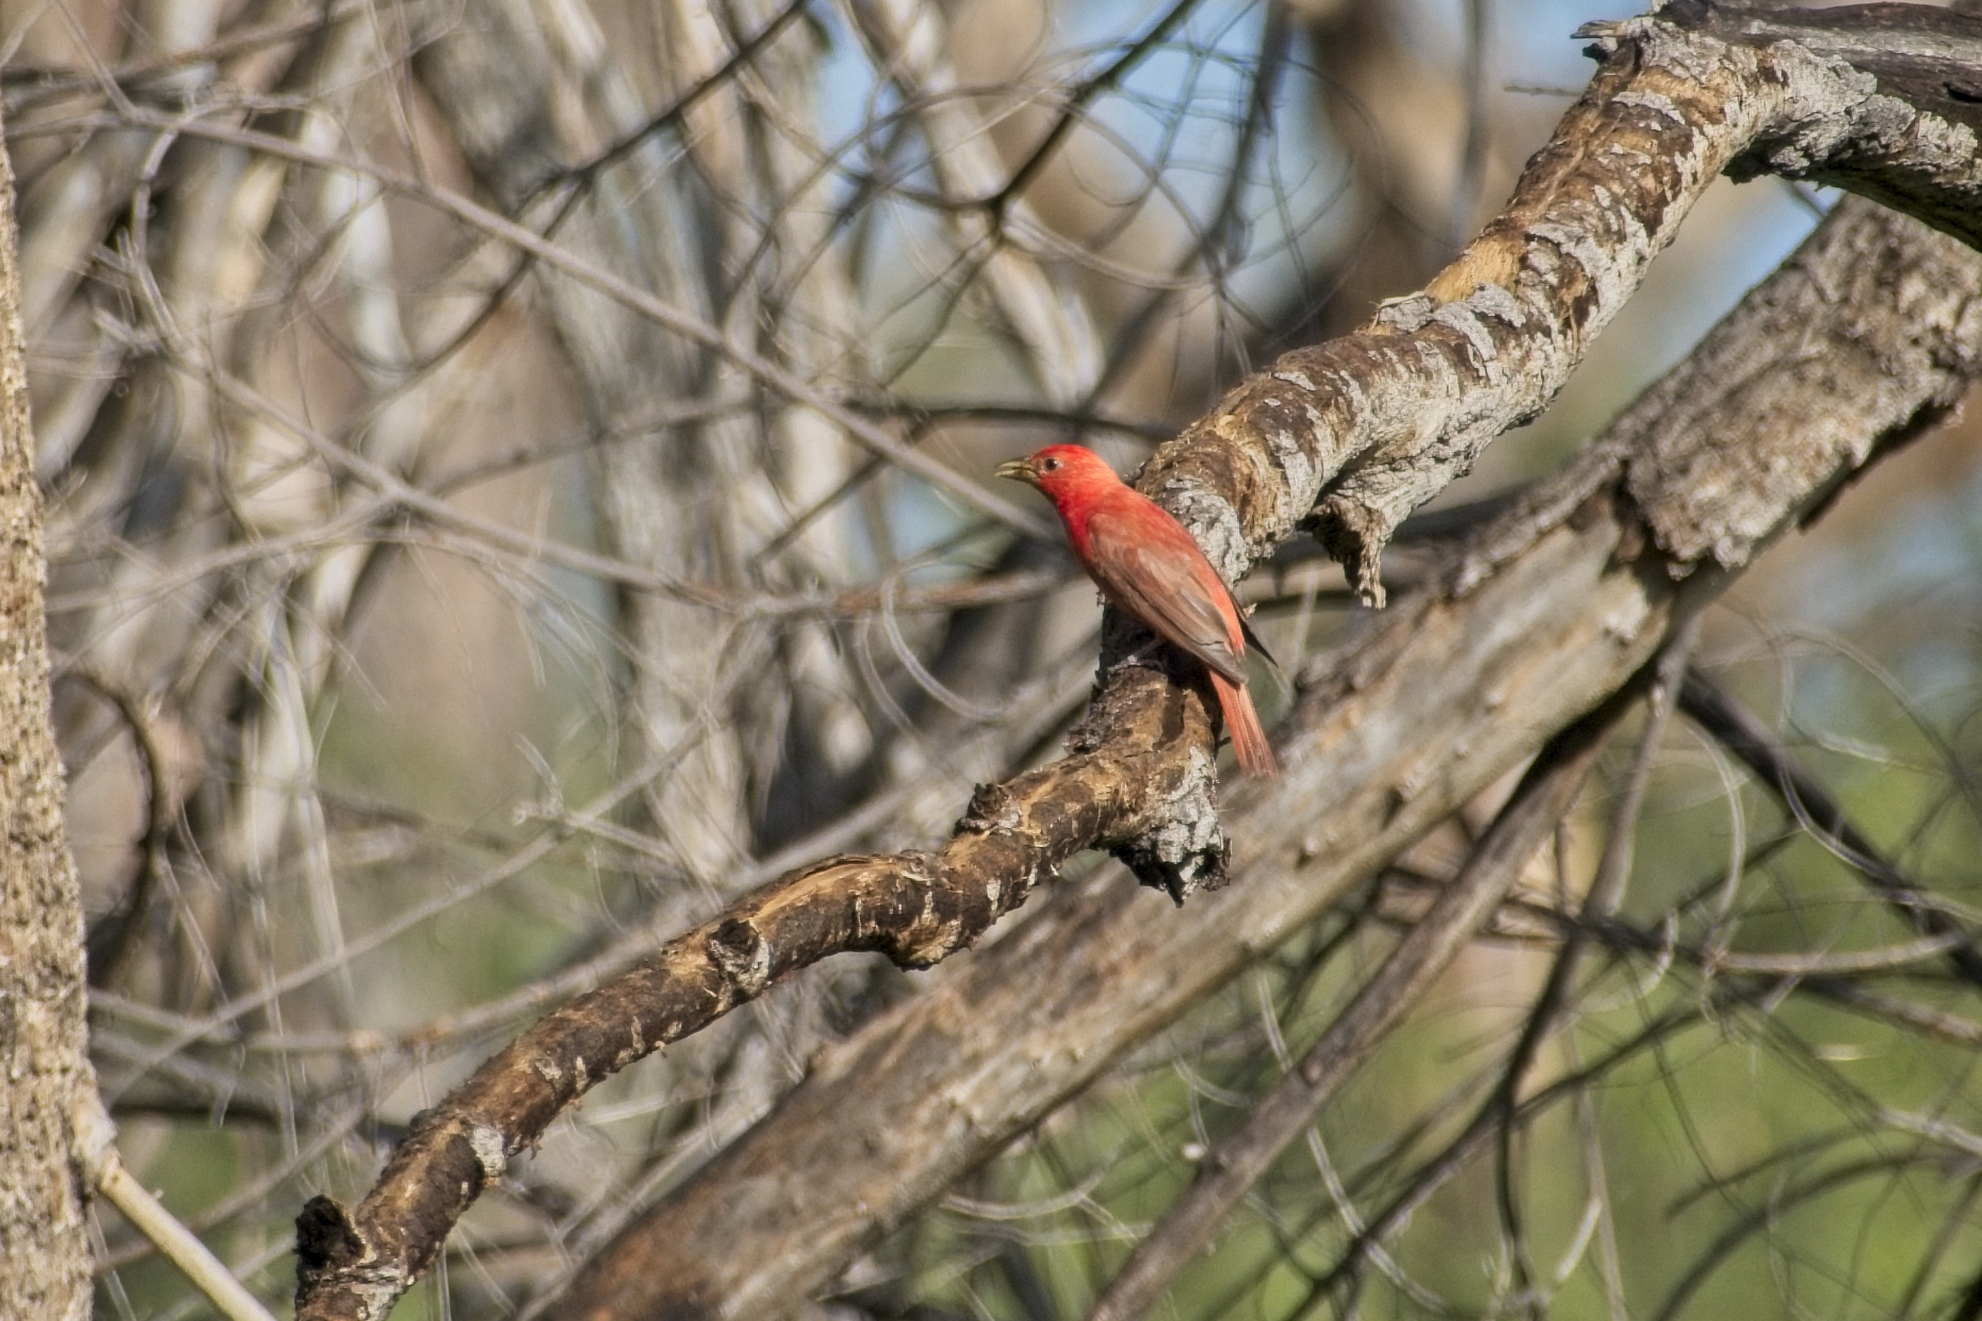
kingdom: Animalia
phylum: Chordata
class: Aves
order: Passeriformes
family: Cardinalidae
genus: Piranga
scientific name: Piranga rubra
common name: Summer tanager
